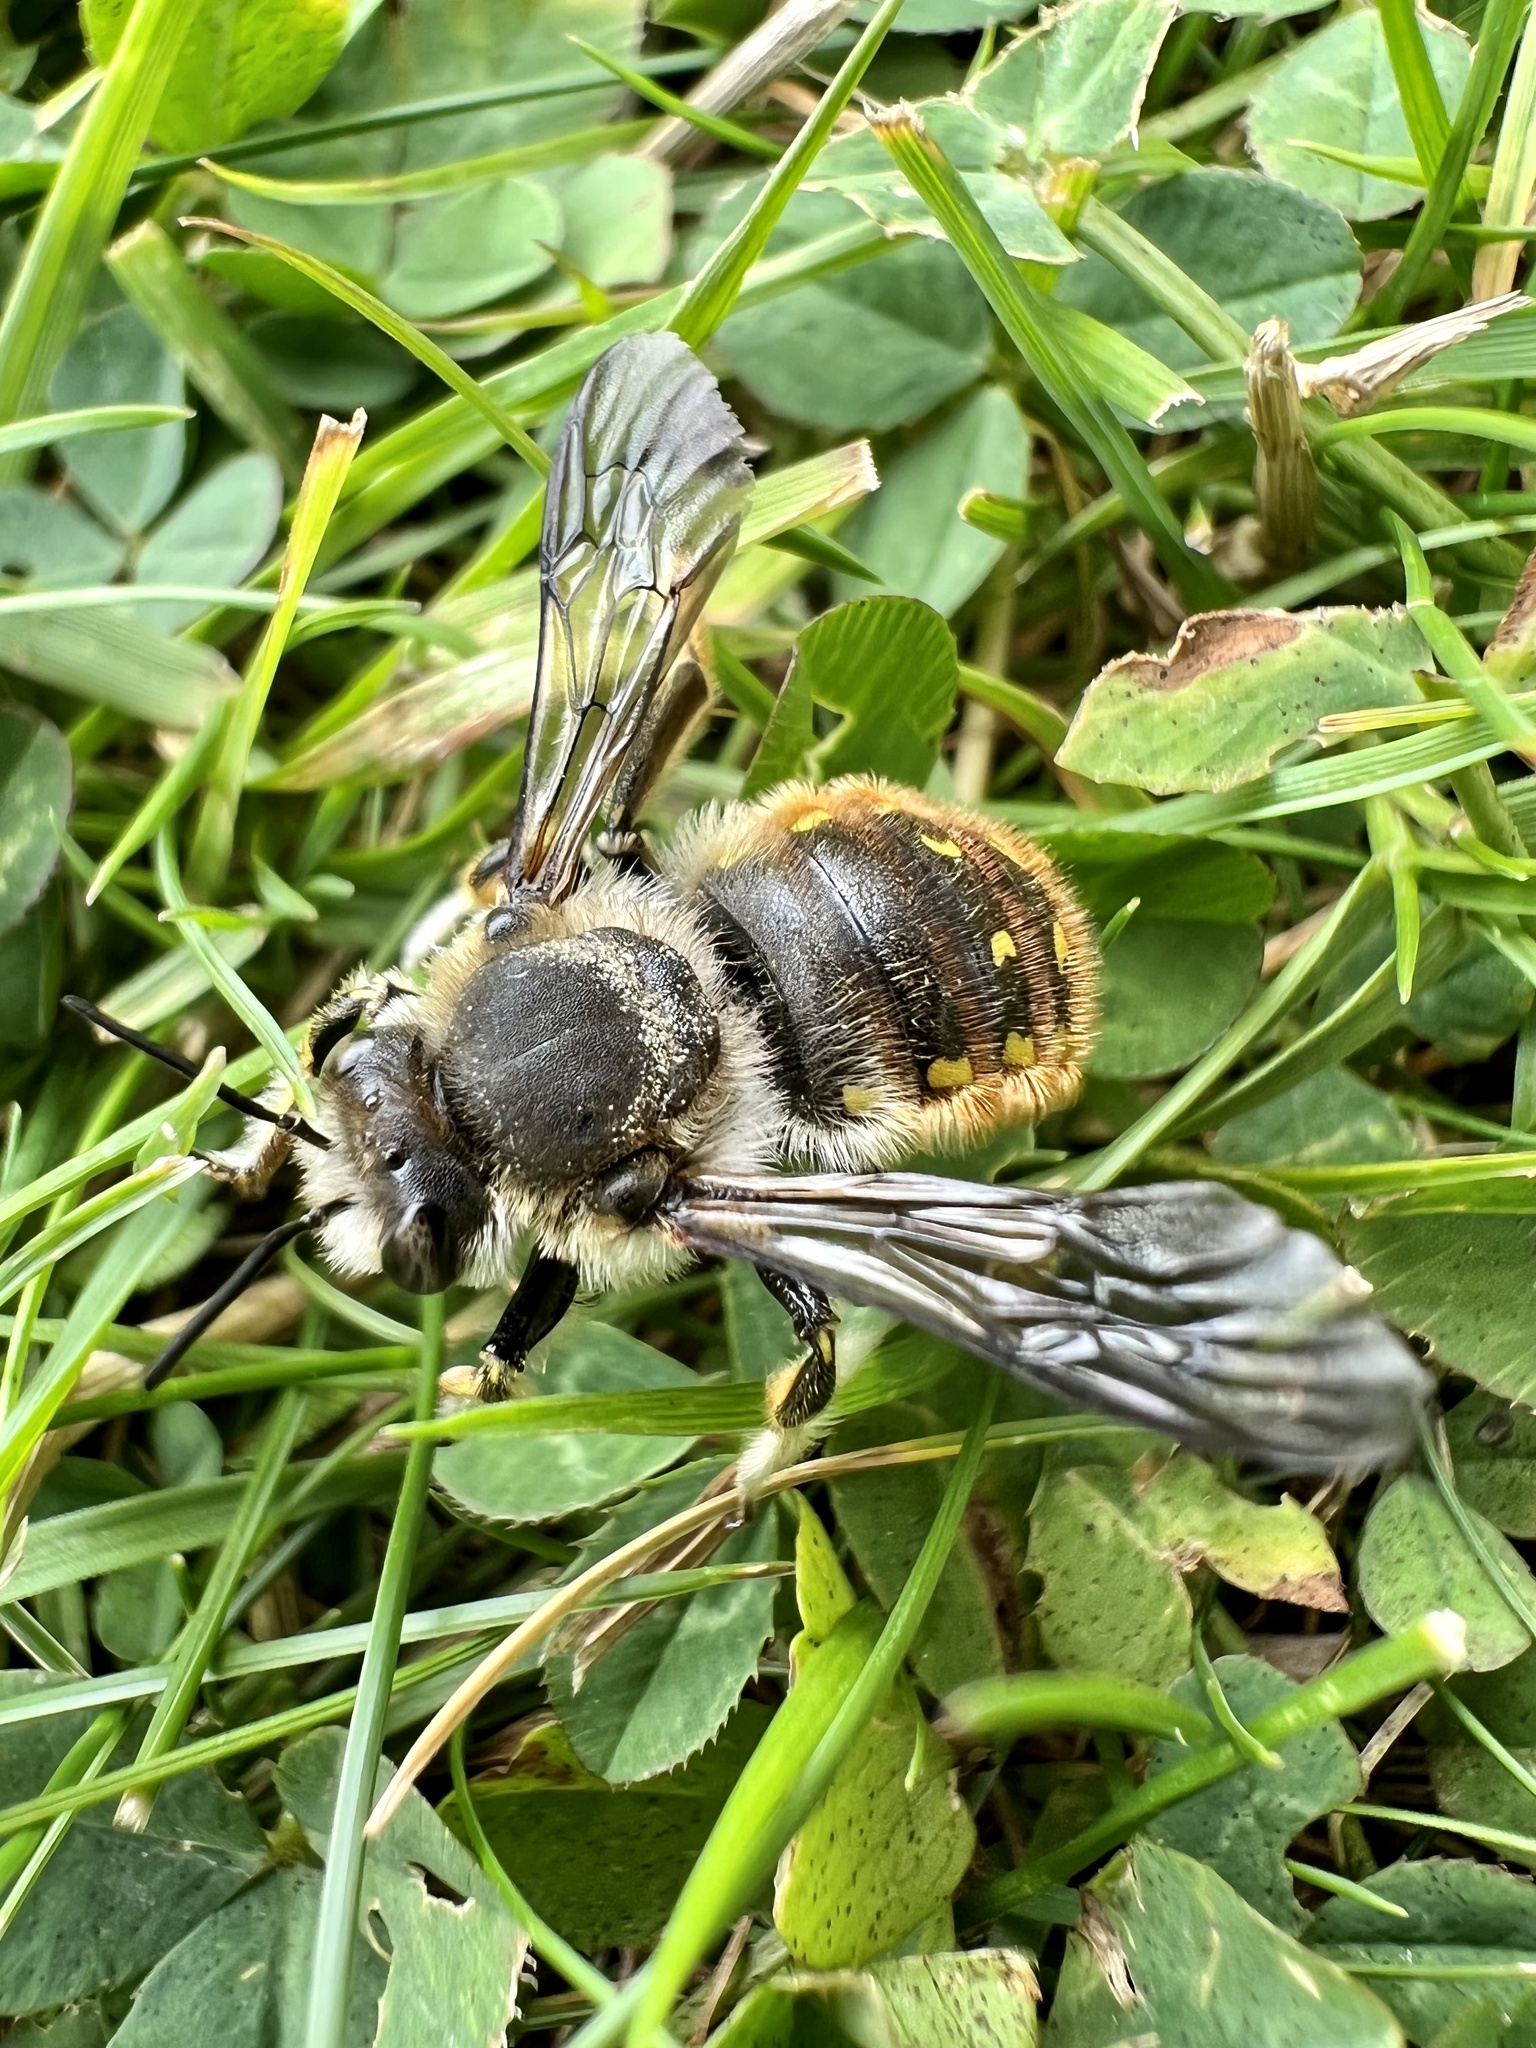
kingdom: Animalia
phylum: Arthropoda
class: Insecta
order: Hymenoptera
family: Megachilidae
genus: Anthidium
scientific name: Anthidium manicatum
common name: Wool carder bee
